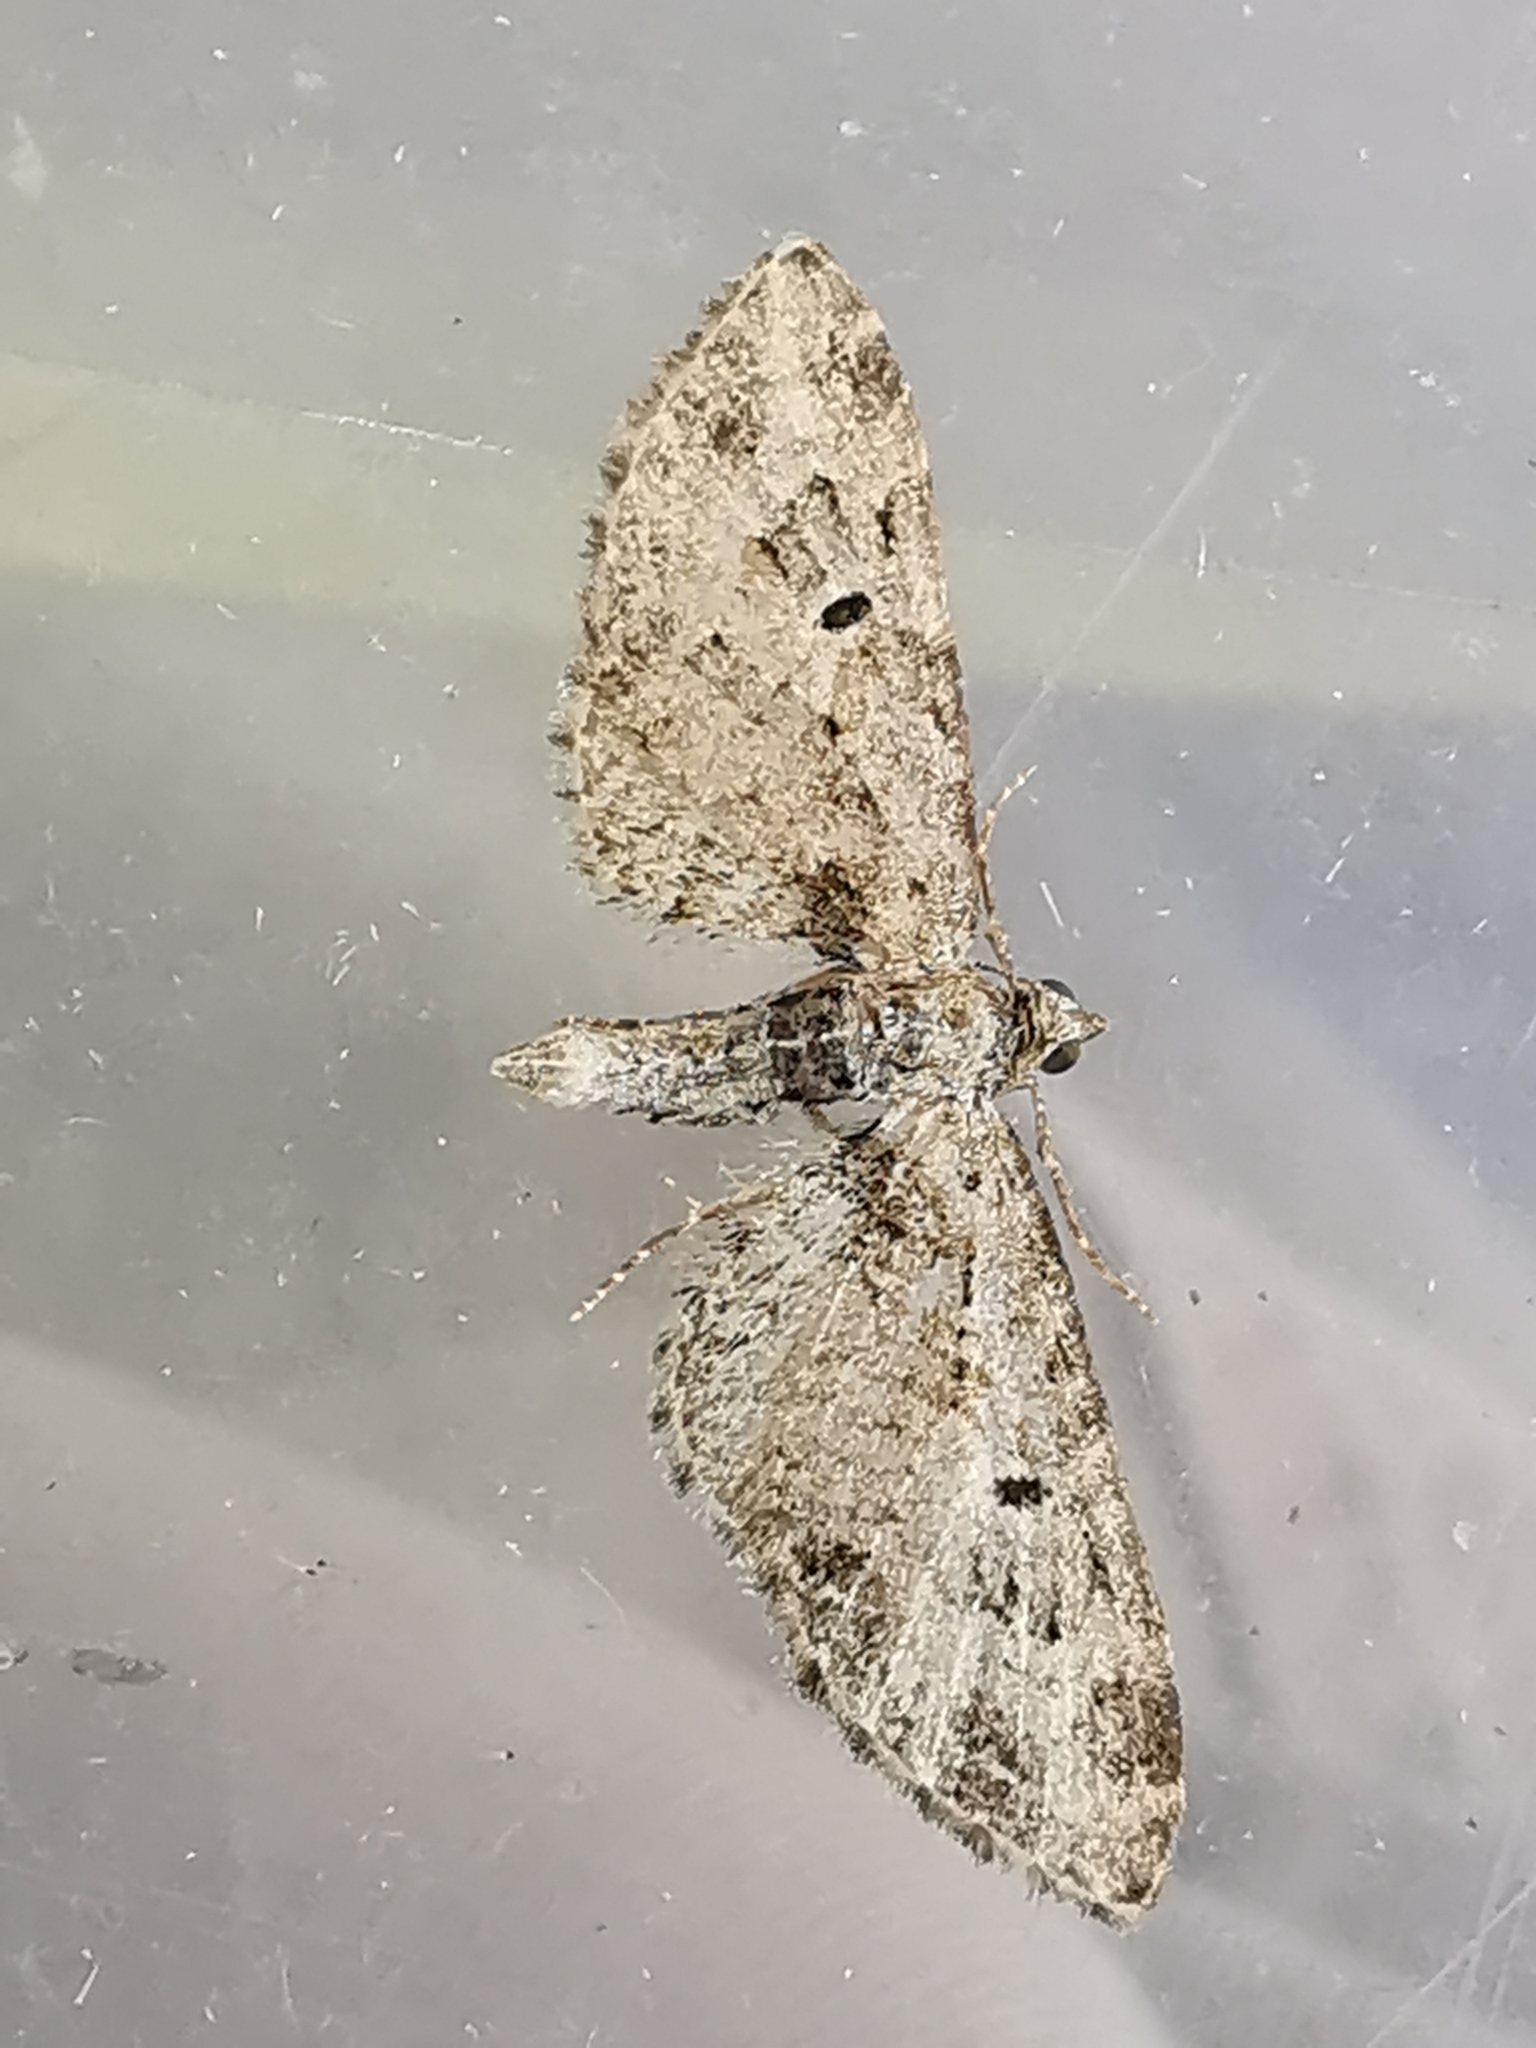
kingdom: Animalia
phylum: Arthropoda
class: Insecta
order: Lepidoptera
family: Geometridae
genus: Eupithecia
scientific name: Eupithecia exiguata
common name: Mottled pug
